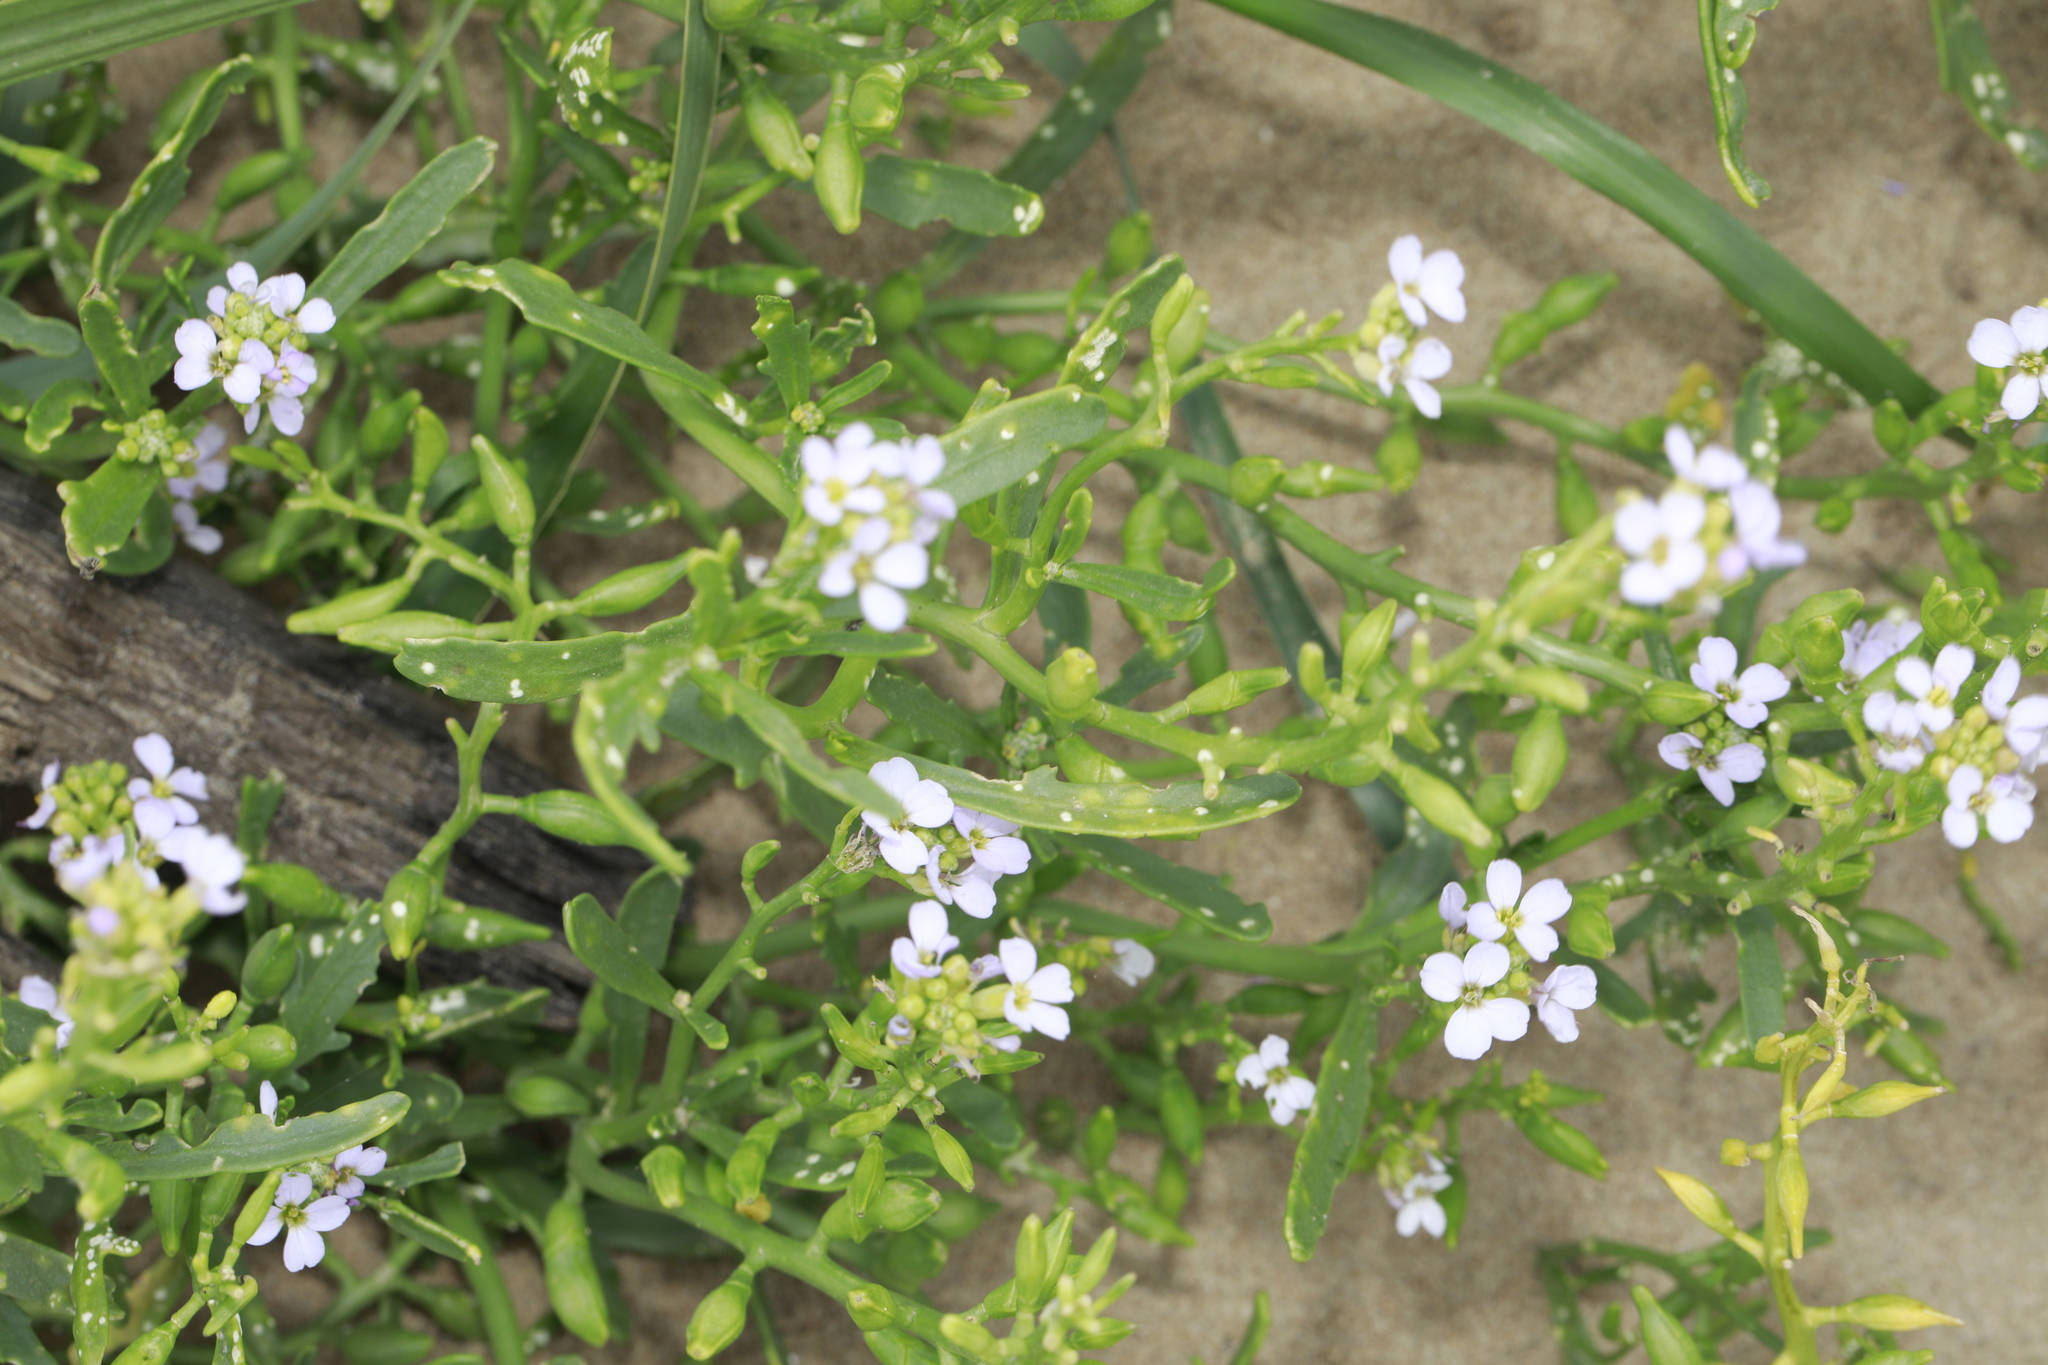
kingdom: Plantae
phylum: Tracheophyta
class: Magnoliopsida
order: Brassicales
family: Brassicaceae
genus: Cakile
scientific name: Cakile maritima
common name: Sea rocket
